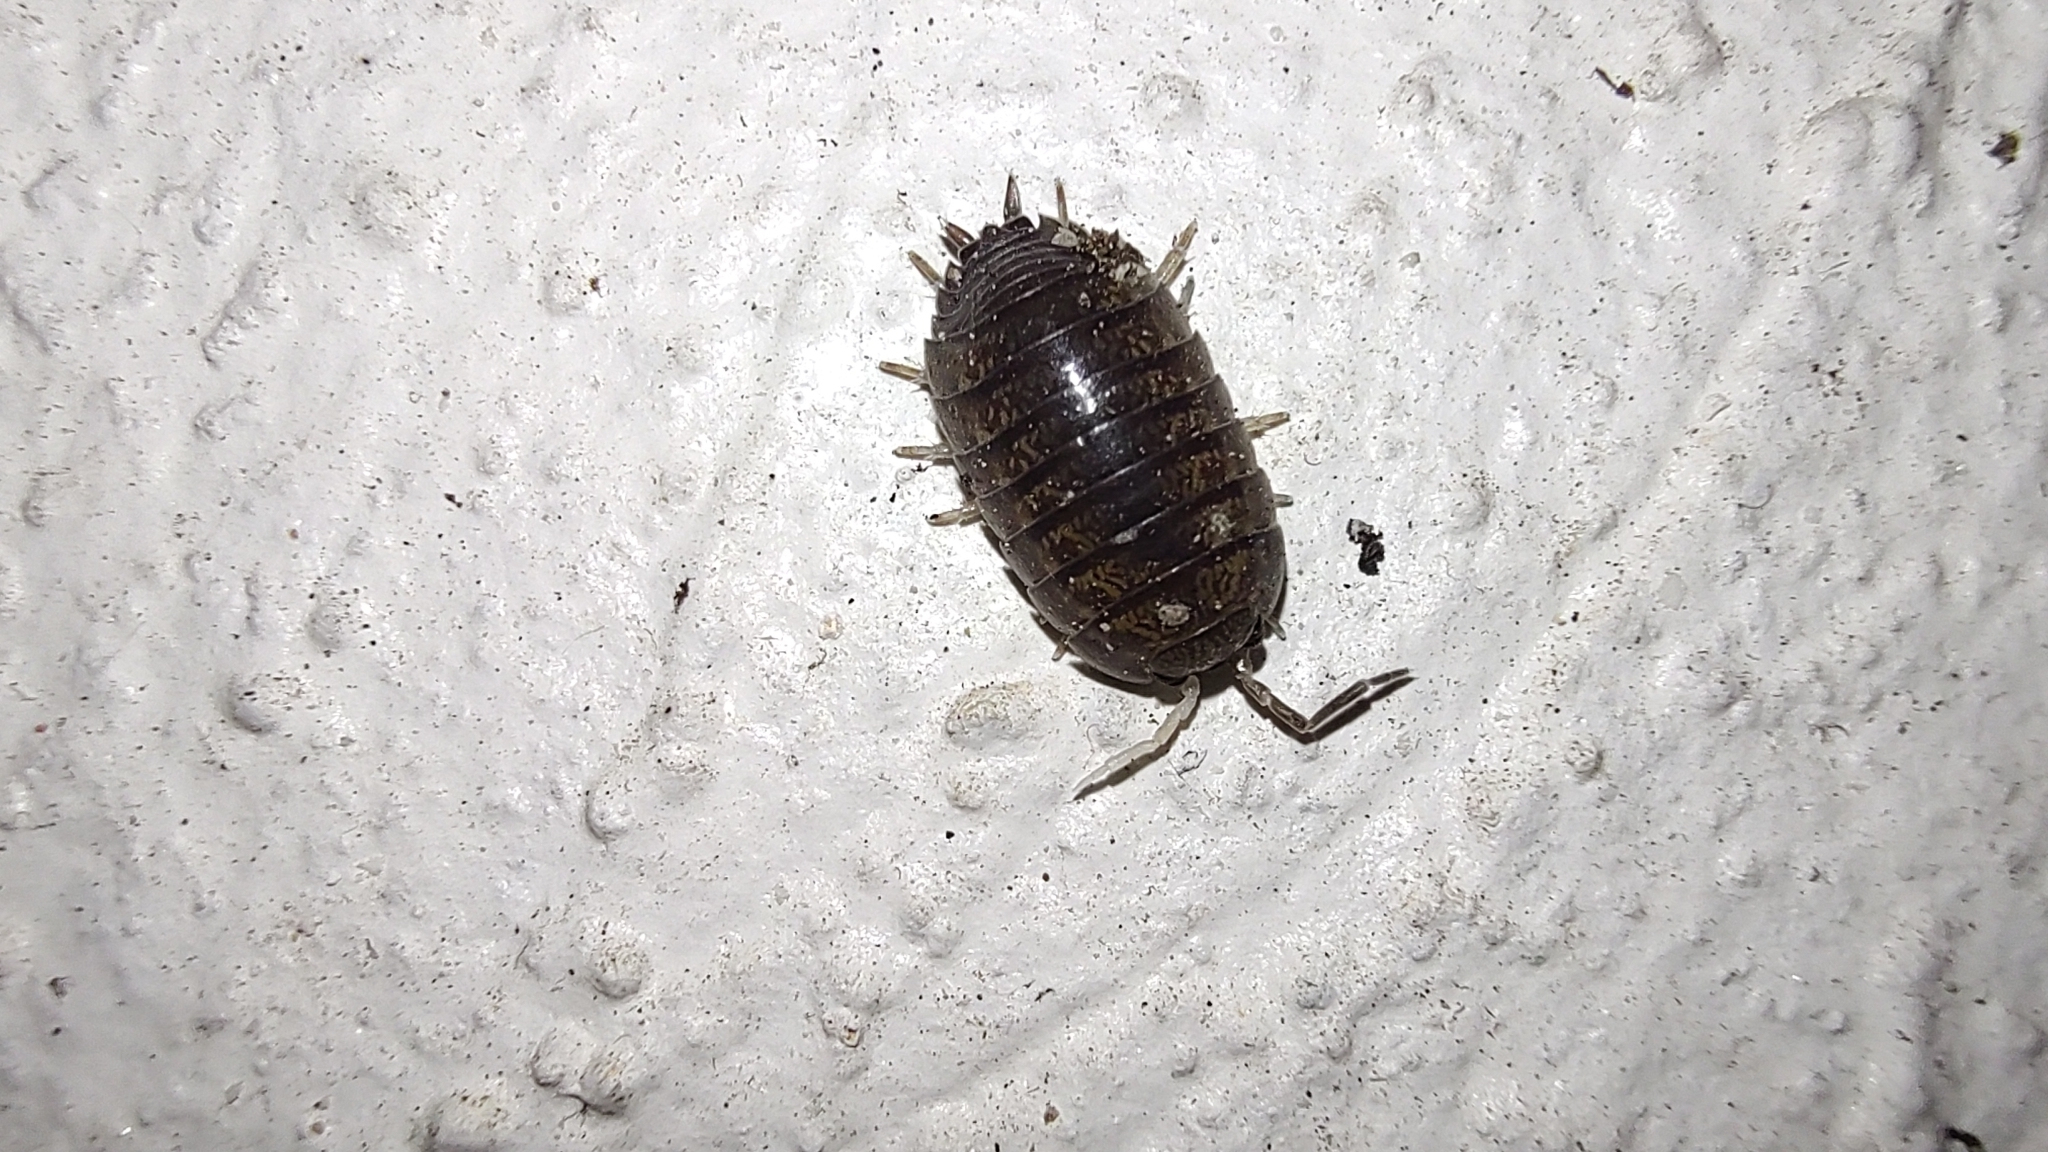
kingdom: Animalia
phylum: Arthropoda
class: Malacostraca
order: Isopoda
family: Porcellionidae
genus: Porcellio
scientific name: Porcellio laevis
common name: Swift woodlouse
